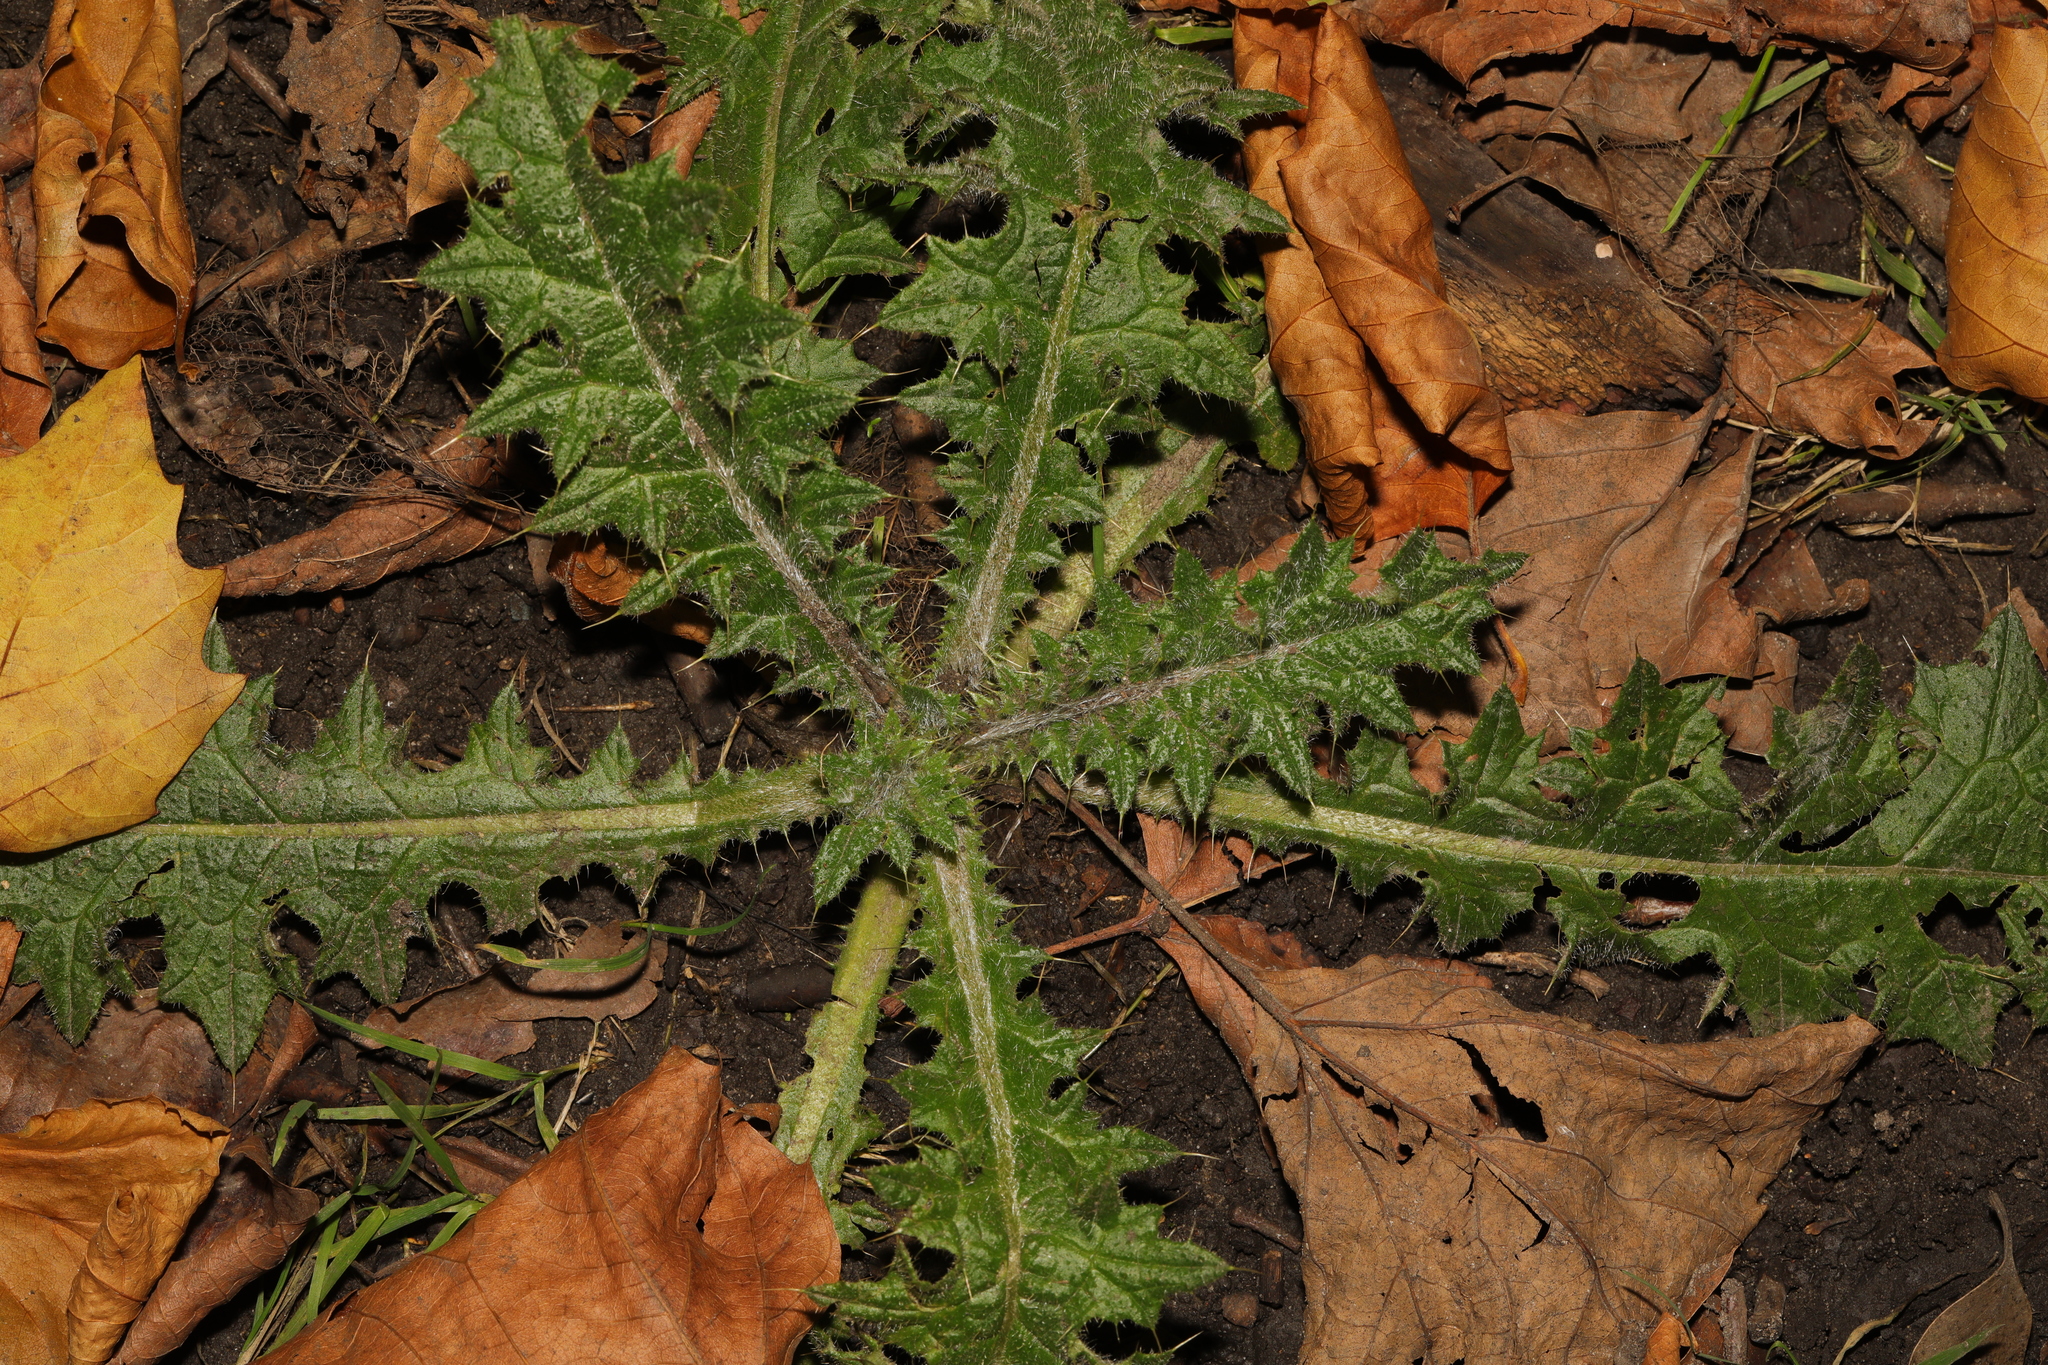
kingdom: Plantae
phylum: Tracheophyta
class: Magnoliopsida
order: Asterales
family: Asteraceae
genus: Cirsium
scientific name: Cirsium vulgare
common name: Bull thistle
